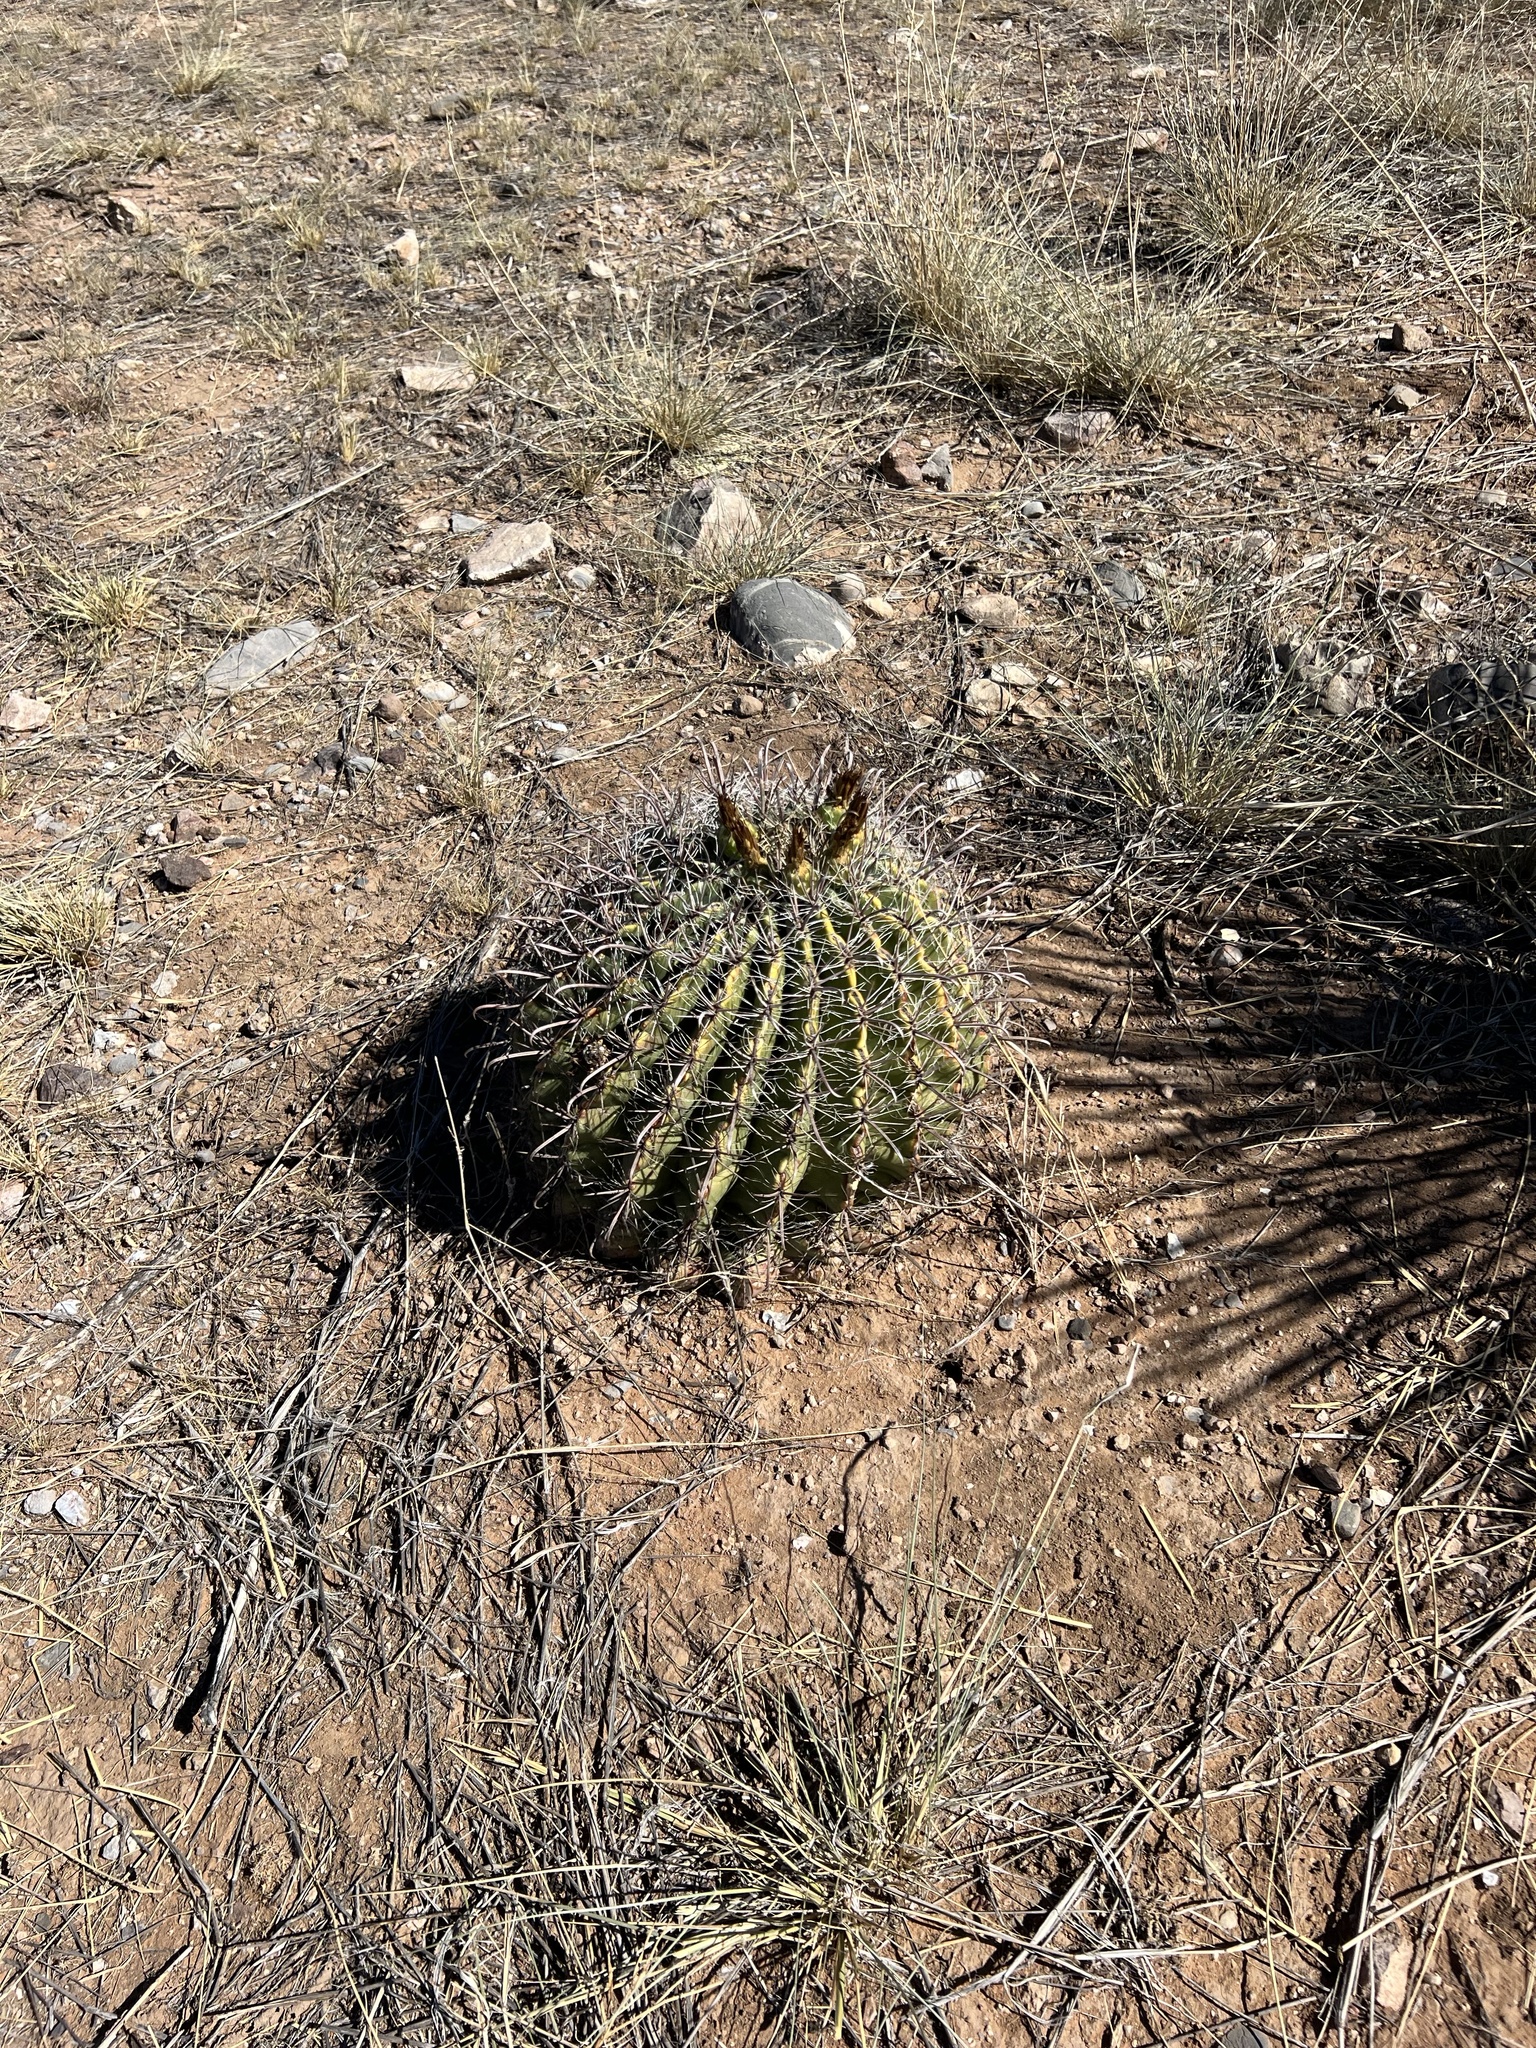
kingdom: Plantae
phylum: Tracheophyta
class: Magnoliopsida
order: Caryophyllales
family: Cactaceae
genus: Ferocactus
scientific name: Ferocactus wislizeni
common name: Candy barrel cactus
